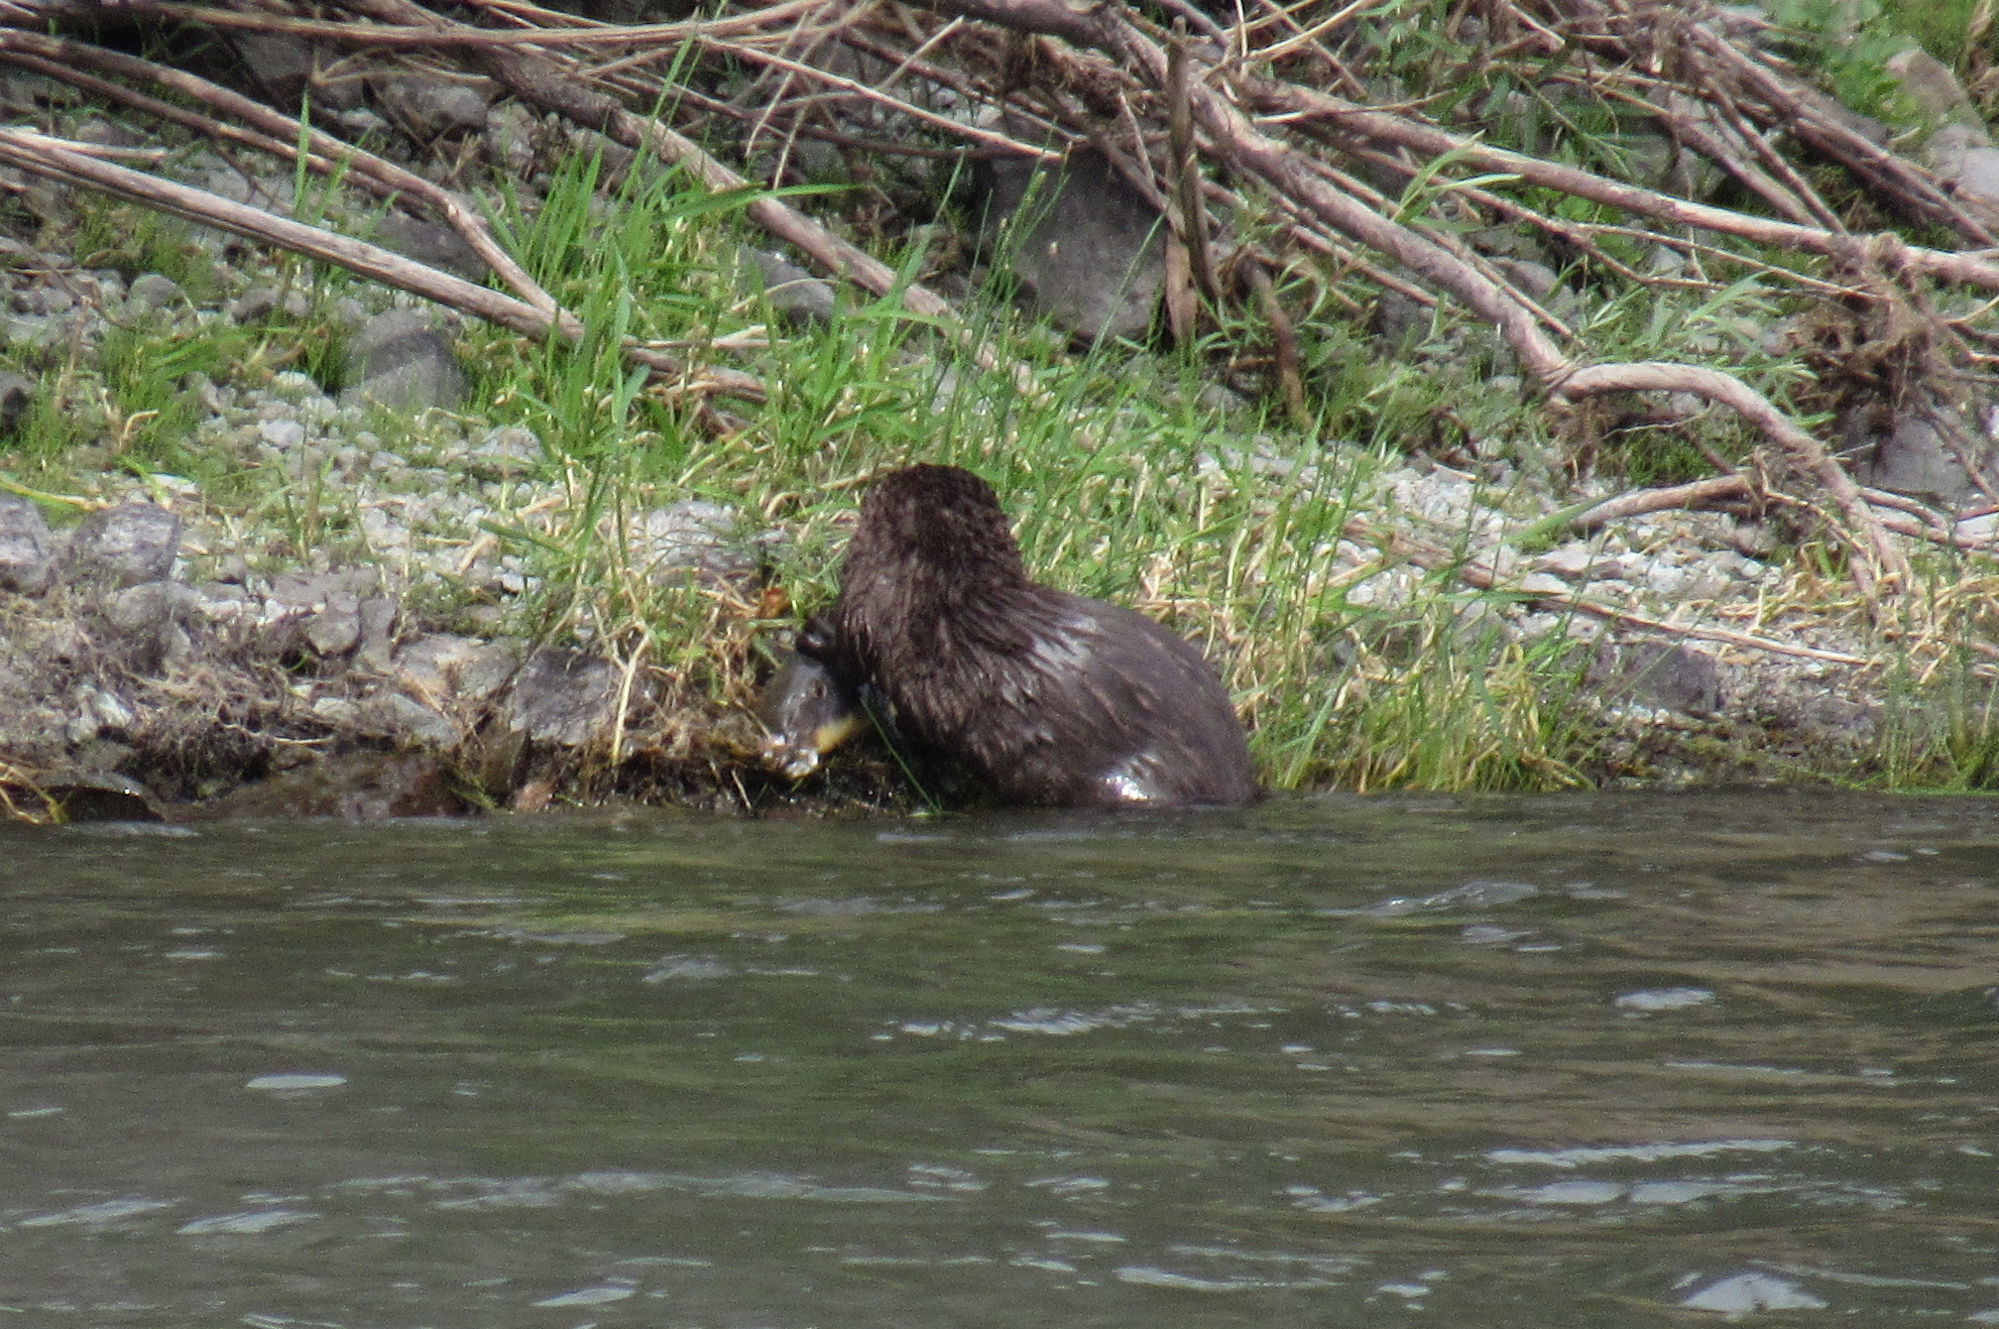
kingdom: Animalia
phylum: Chordata
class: Mammalia
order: Carnivora
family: Mustelidae
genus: Lontra
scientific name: Lontra canadensis
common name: North american river otter
